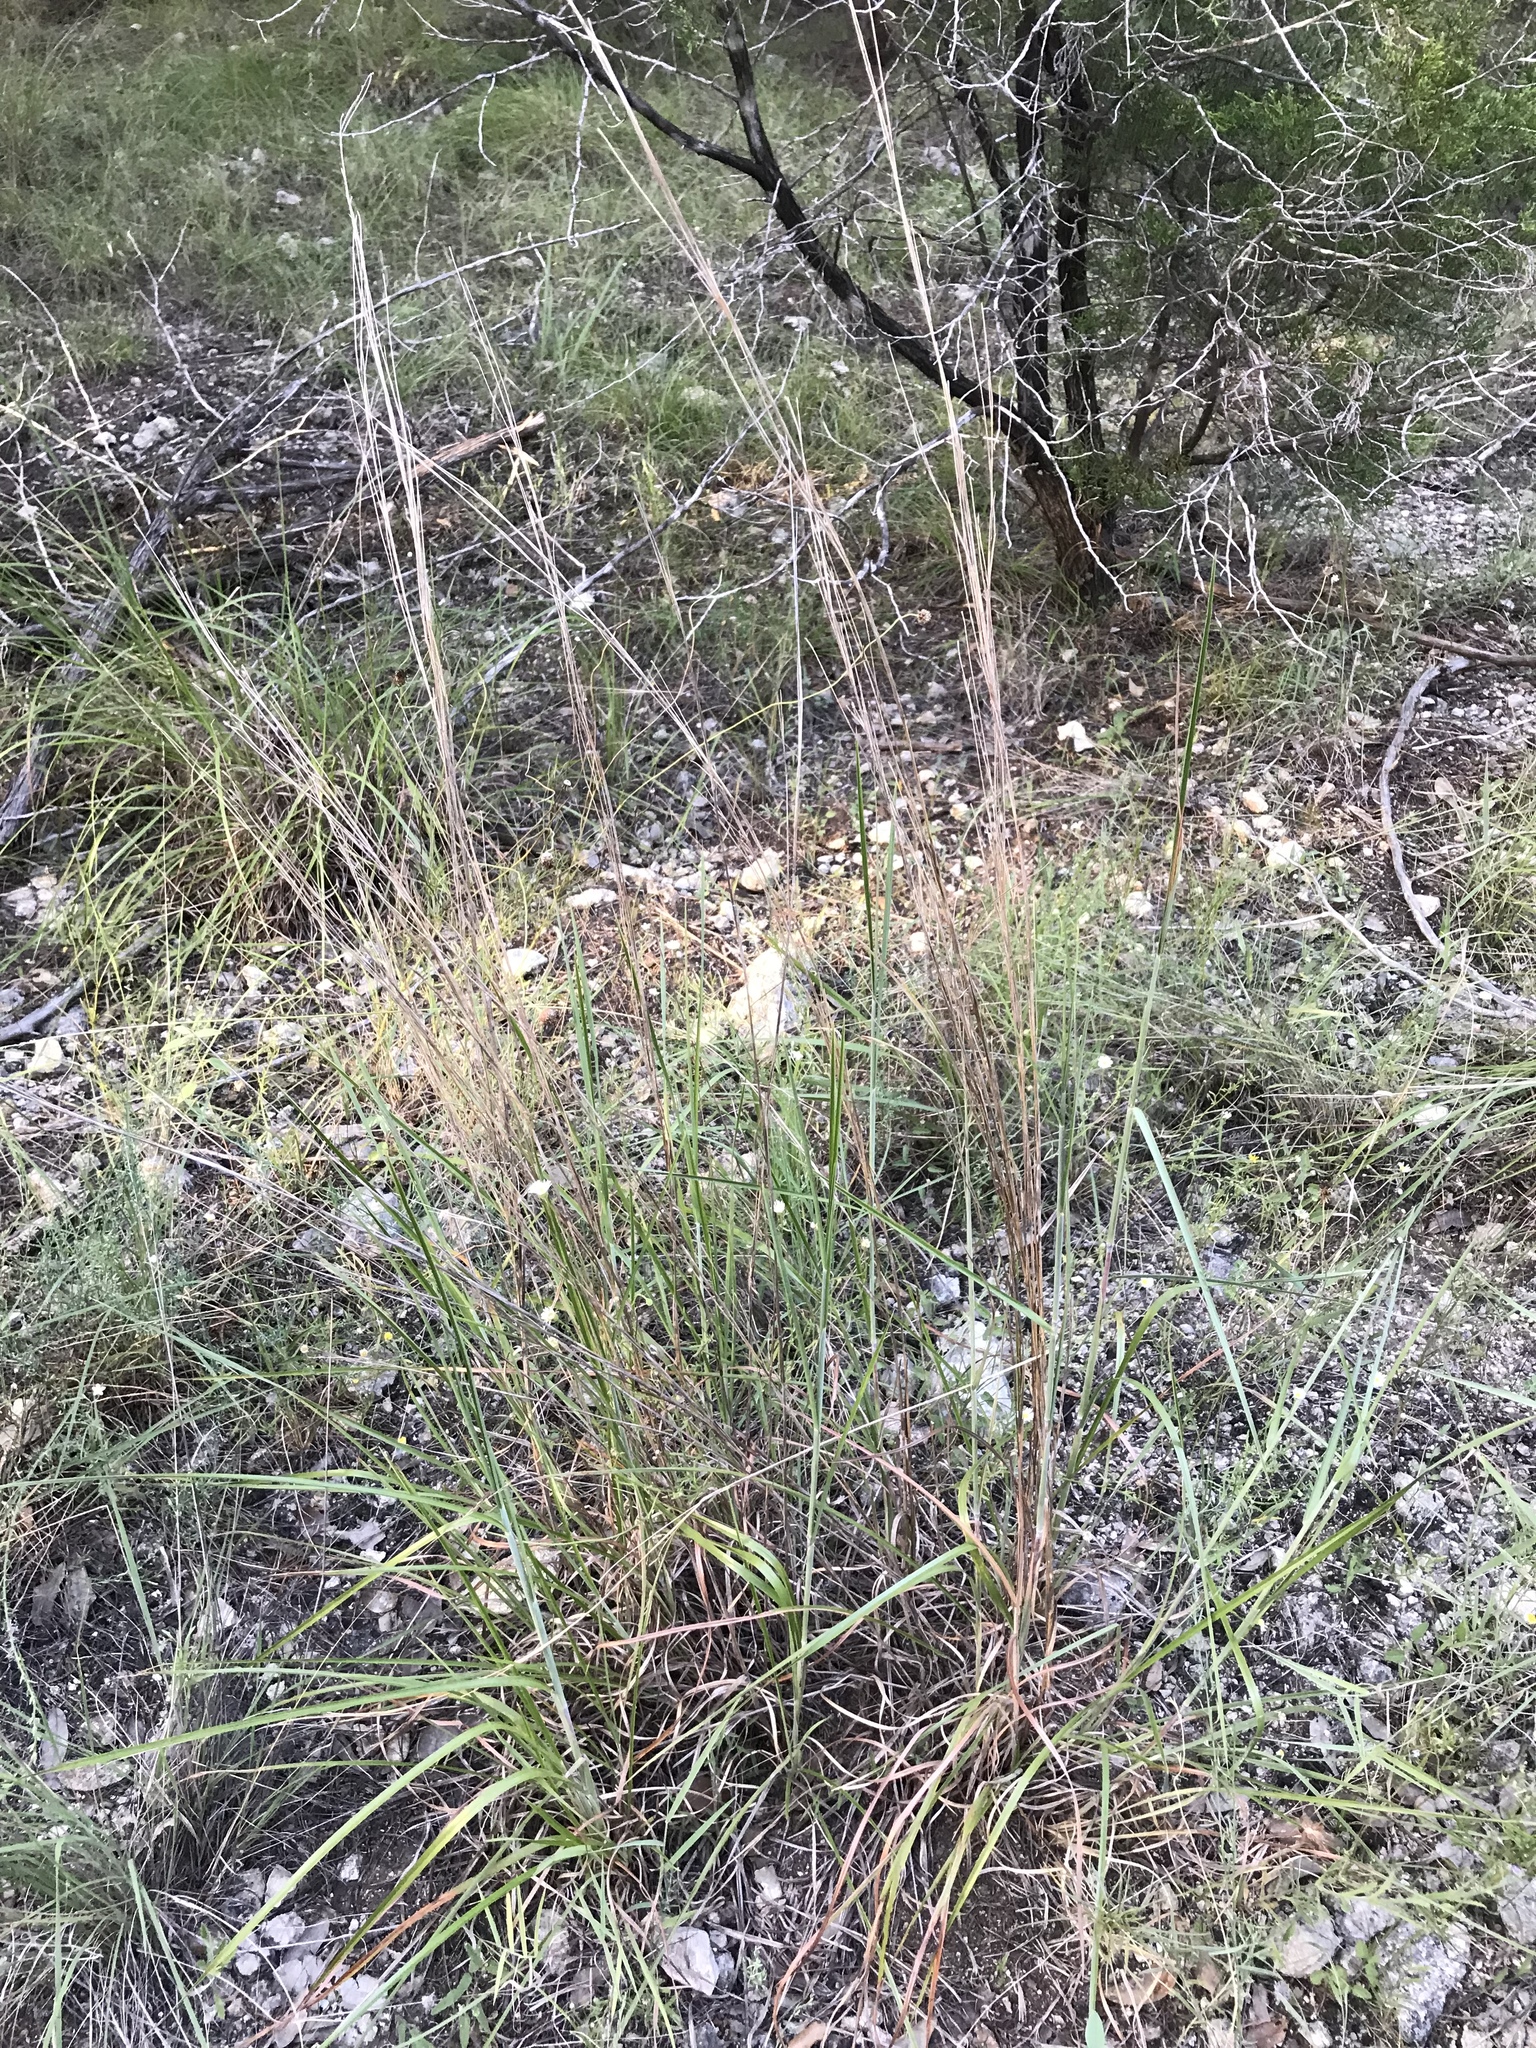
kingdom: Plantae
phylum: Tracheophyta
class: Liliopsida
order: Poales
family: Poaceae
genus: Schizachyrium
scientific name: Schizachyrium scoparium
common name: Little bluestem
